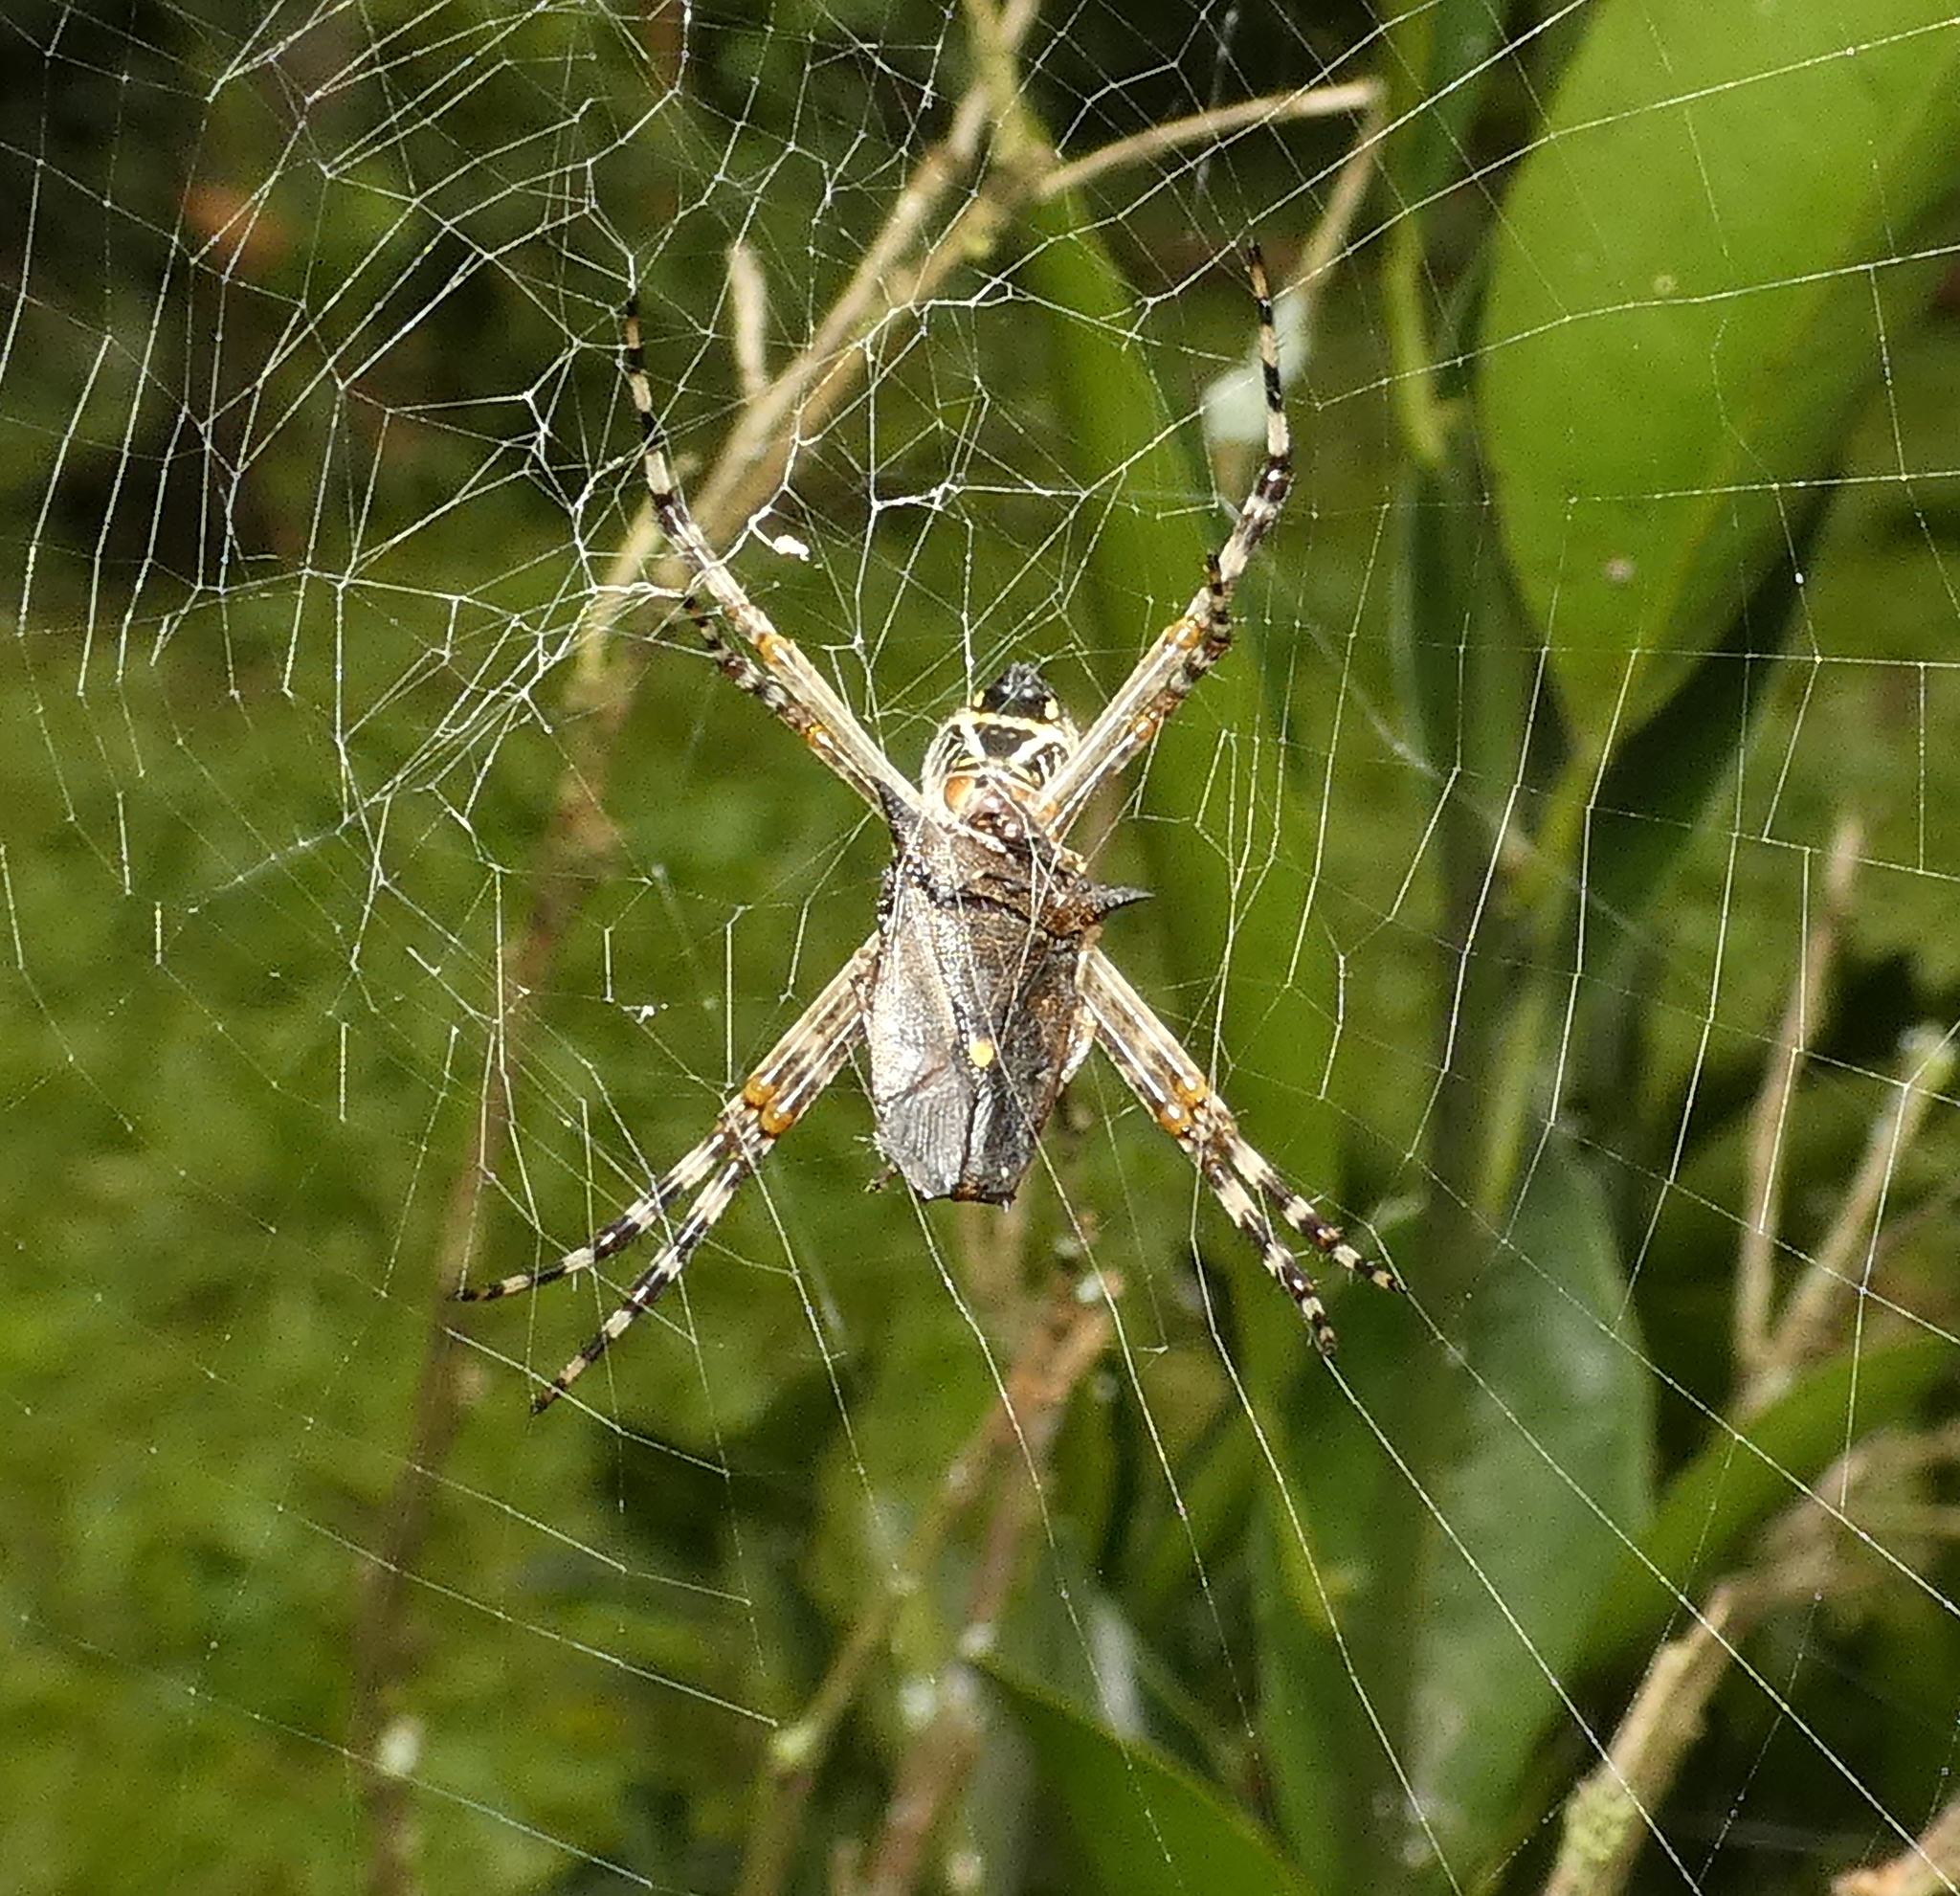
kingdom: Animalia
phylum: Arthropoda
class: Arachnida
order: Araneae
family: Araneidae
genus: Argiope
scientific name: Argiope argentata
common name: Orb weavers
